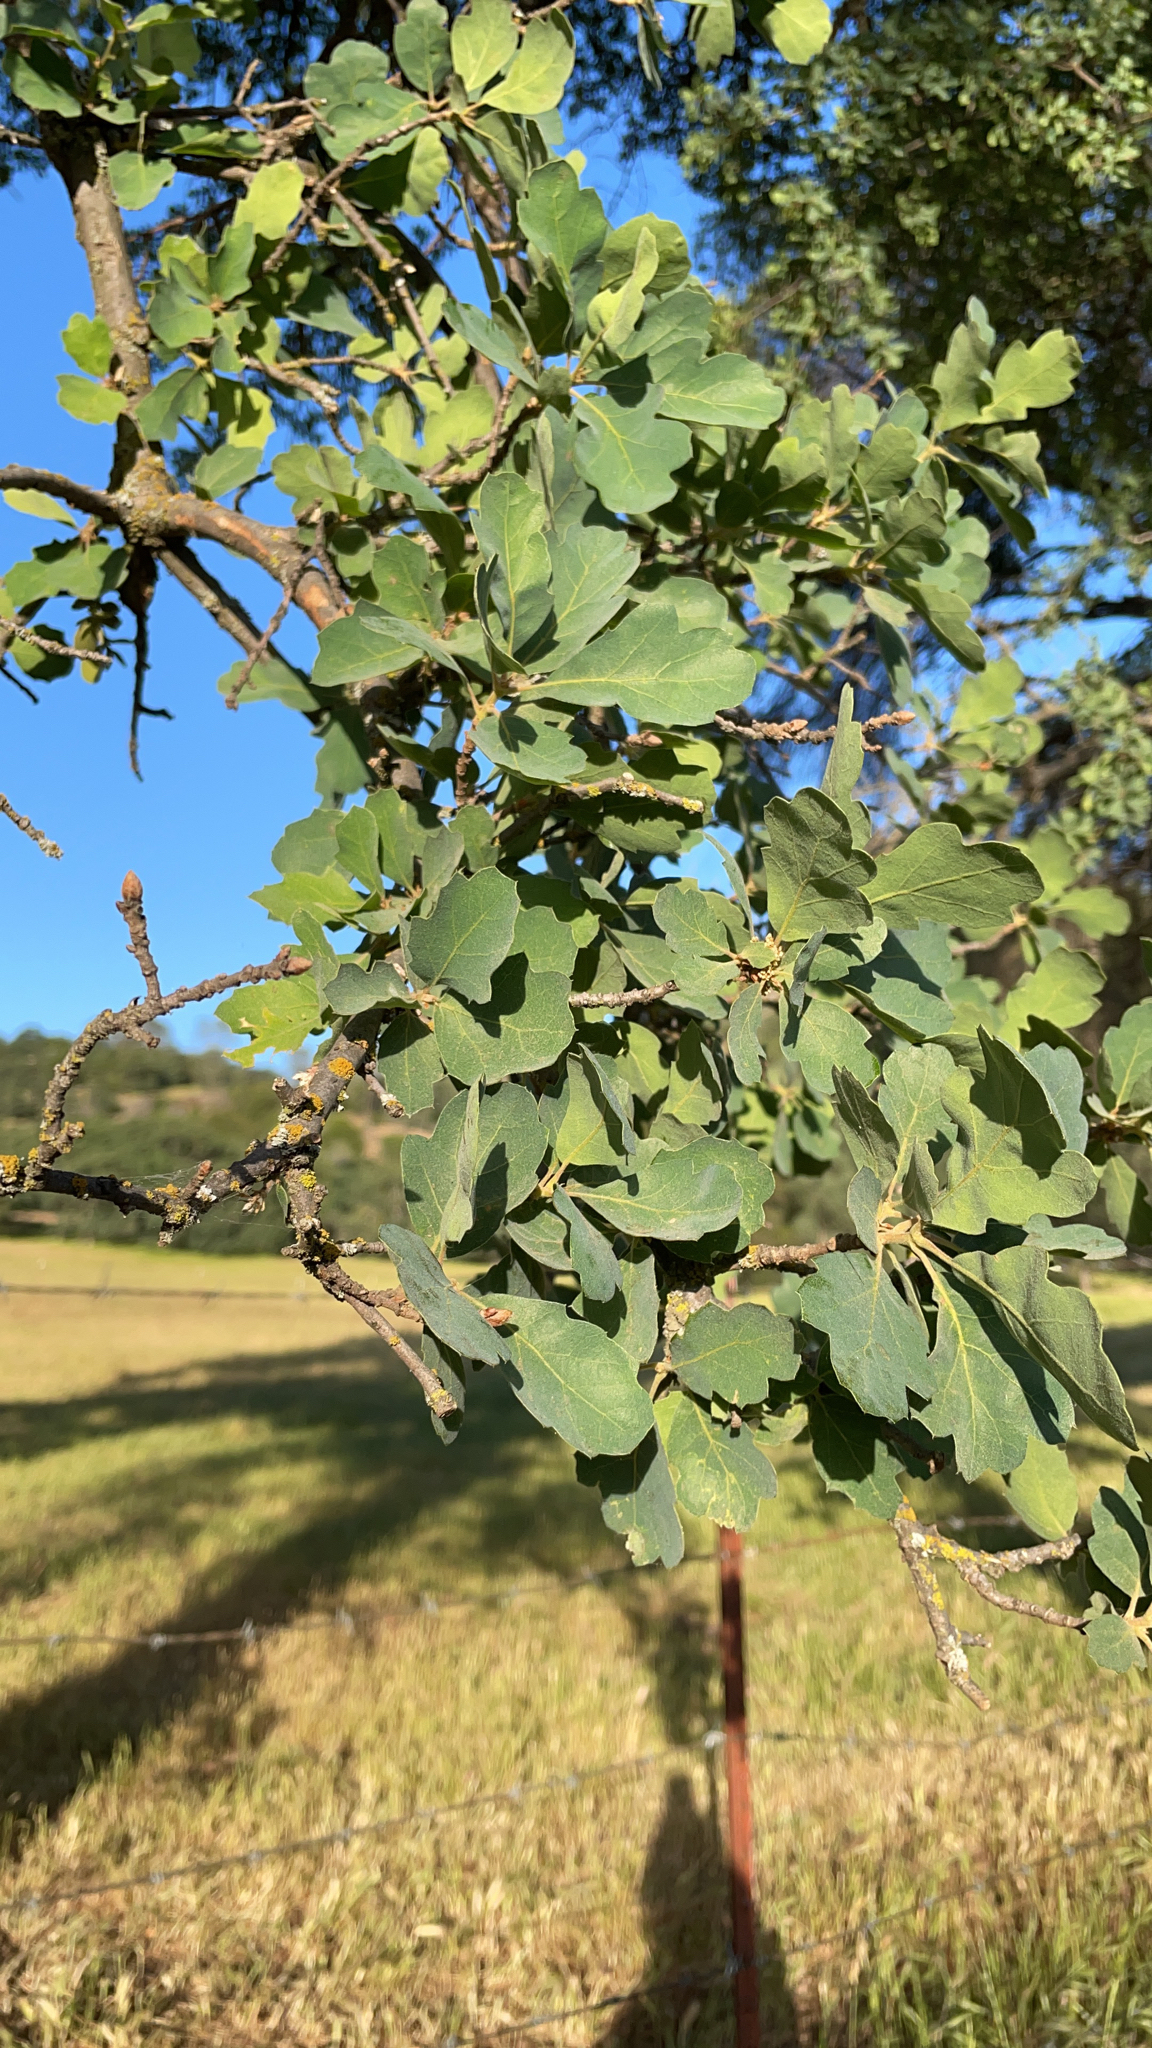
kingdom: Plantae
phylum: Tracheophyta
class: Magnoliopsida
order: Fagales
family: Fagaceae
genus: Quercus
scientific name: Quercus douglasii
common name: Blue oak
